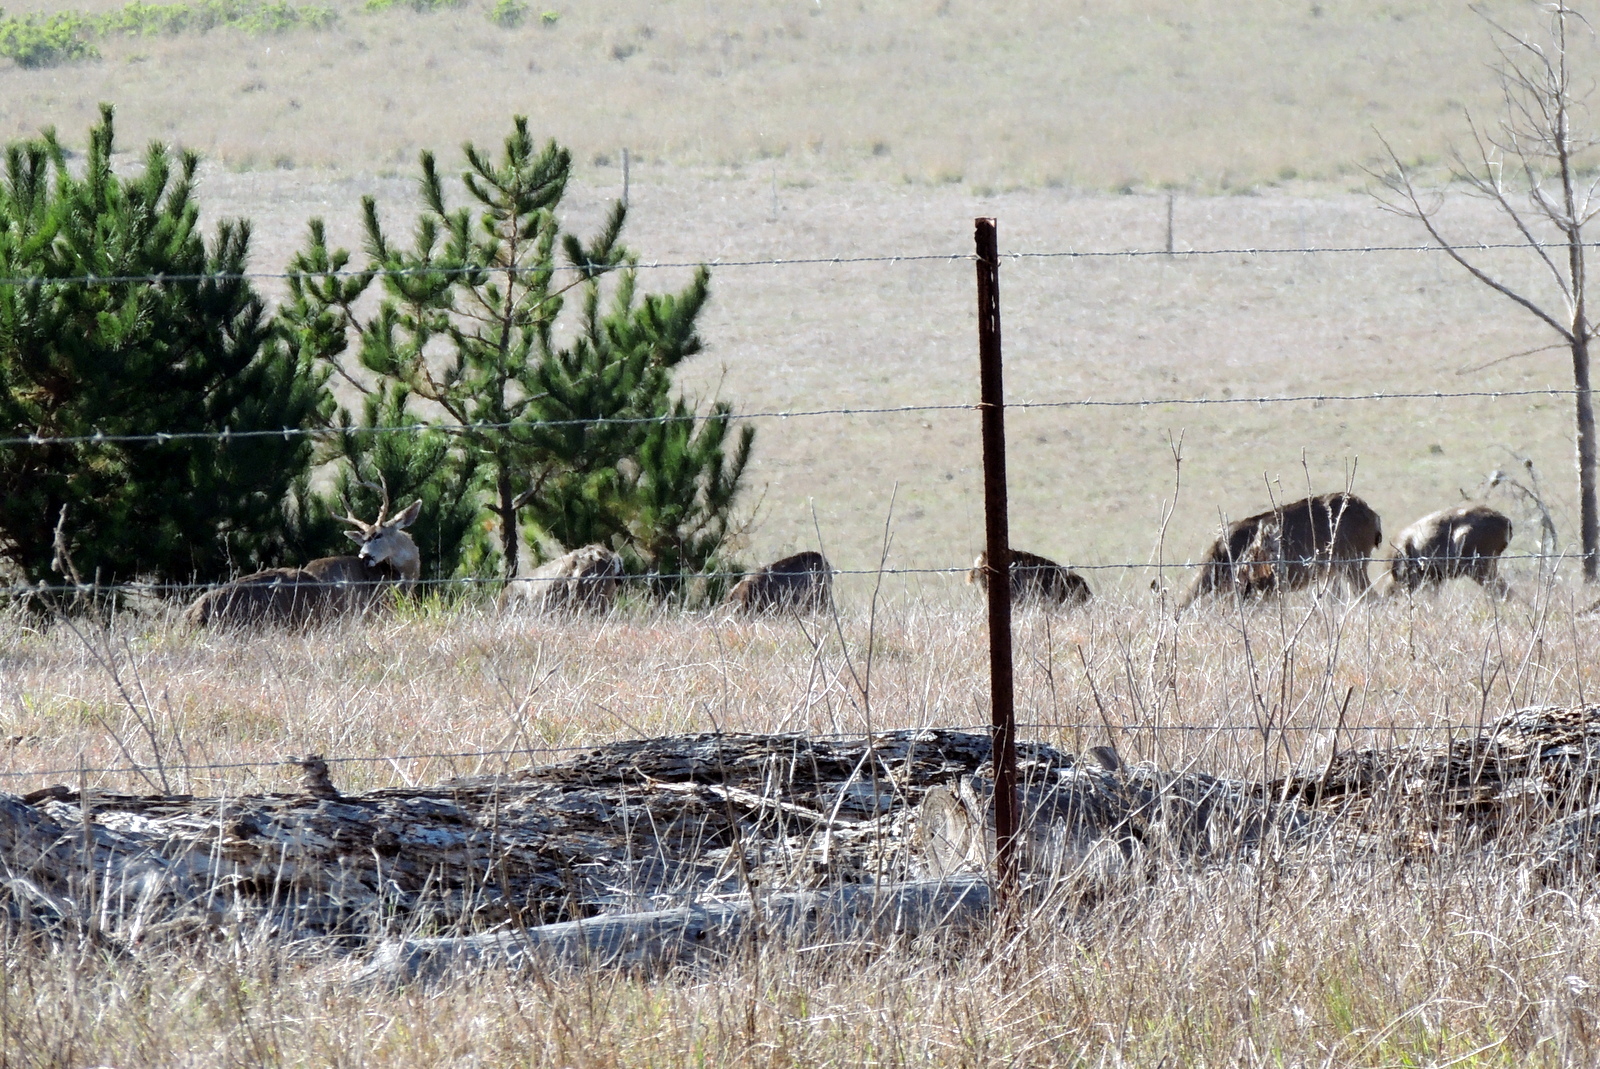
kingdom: Animalia
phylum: Chordata
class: Mammalia
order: Artiodactyla
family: Cervidae
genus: Odocoileus
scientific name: Odocoileus hemionus
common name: Mule deer
